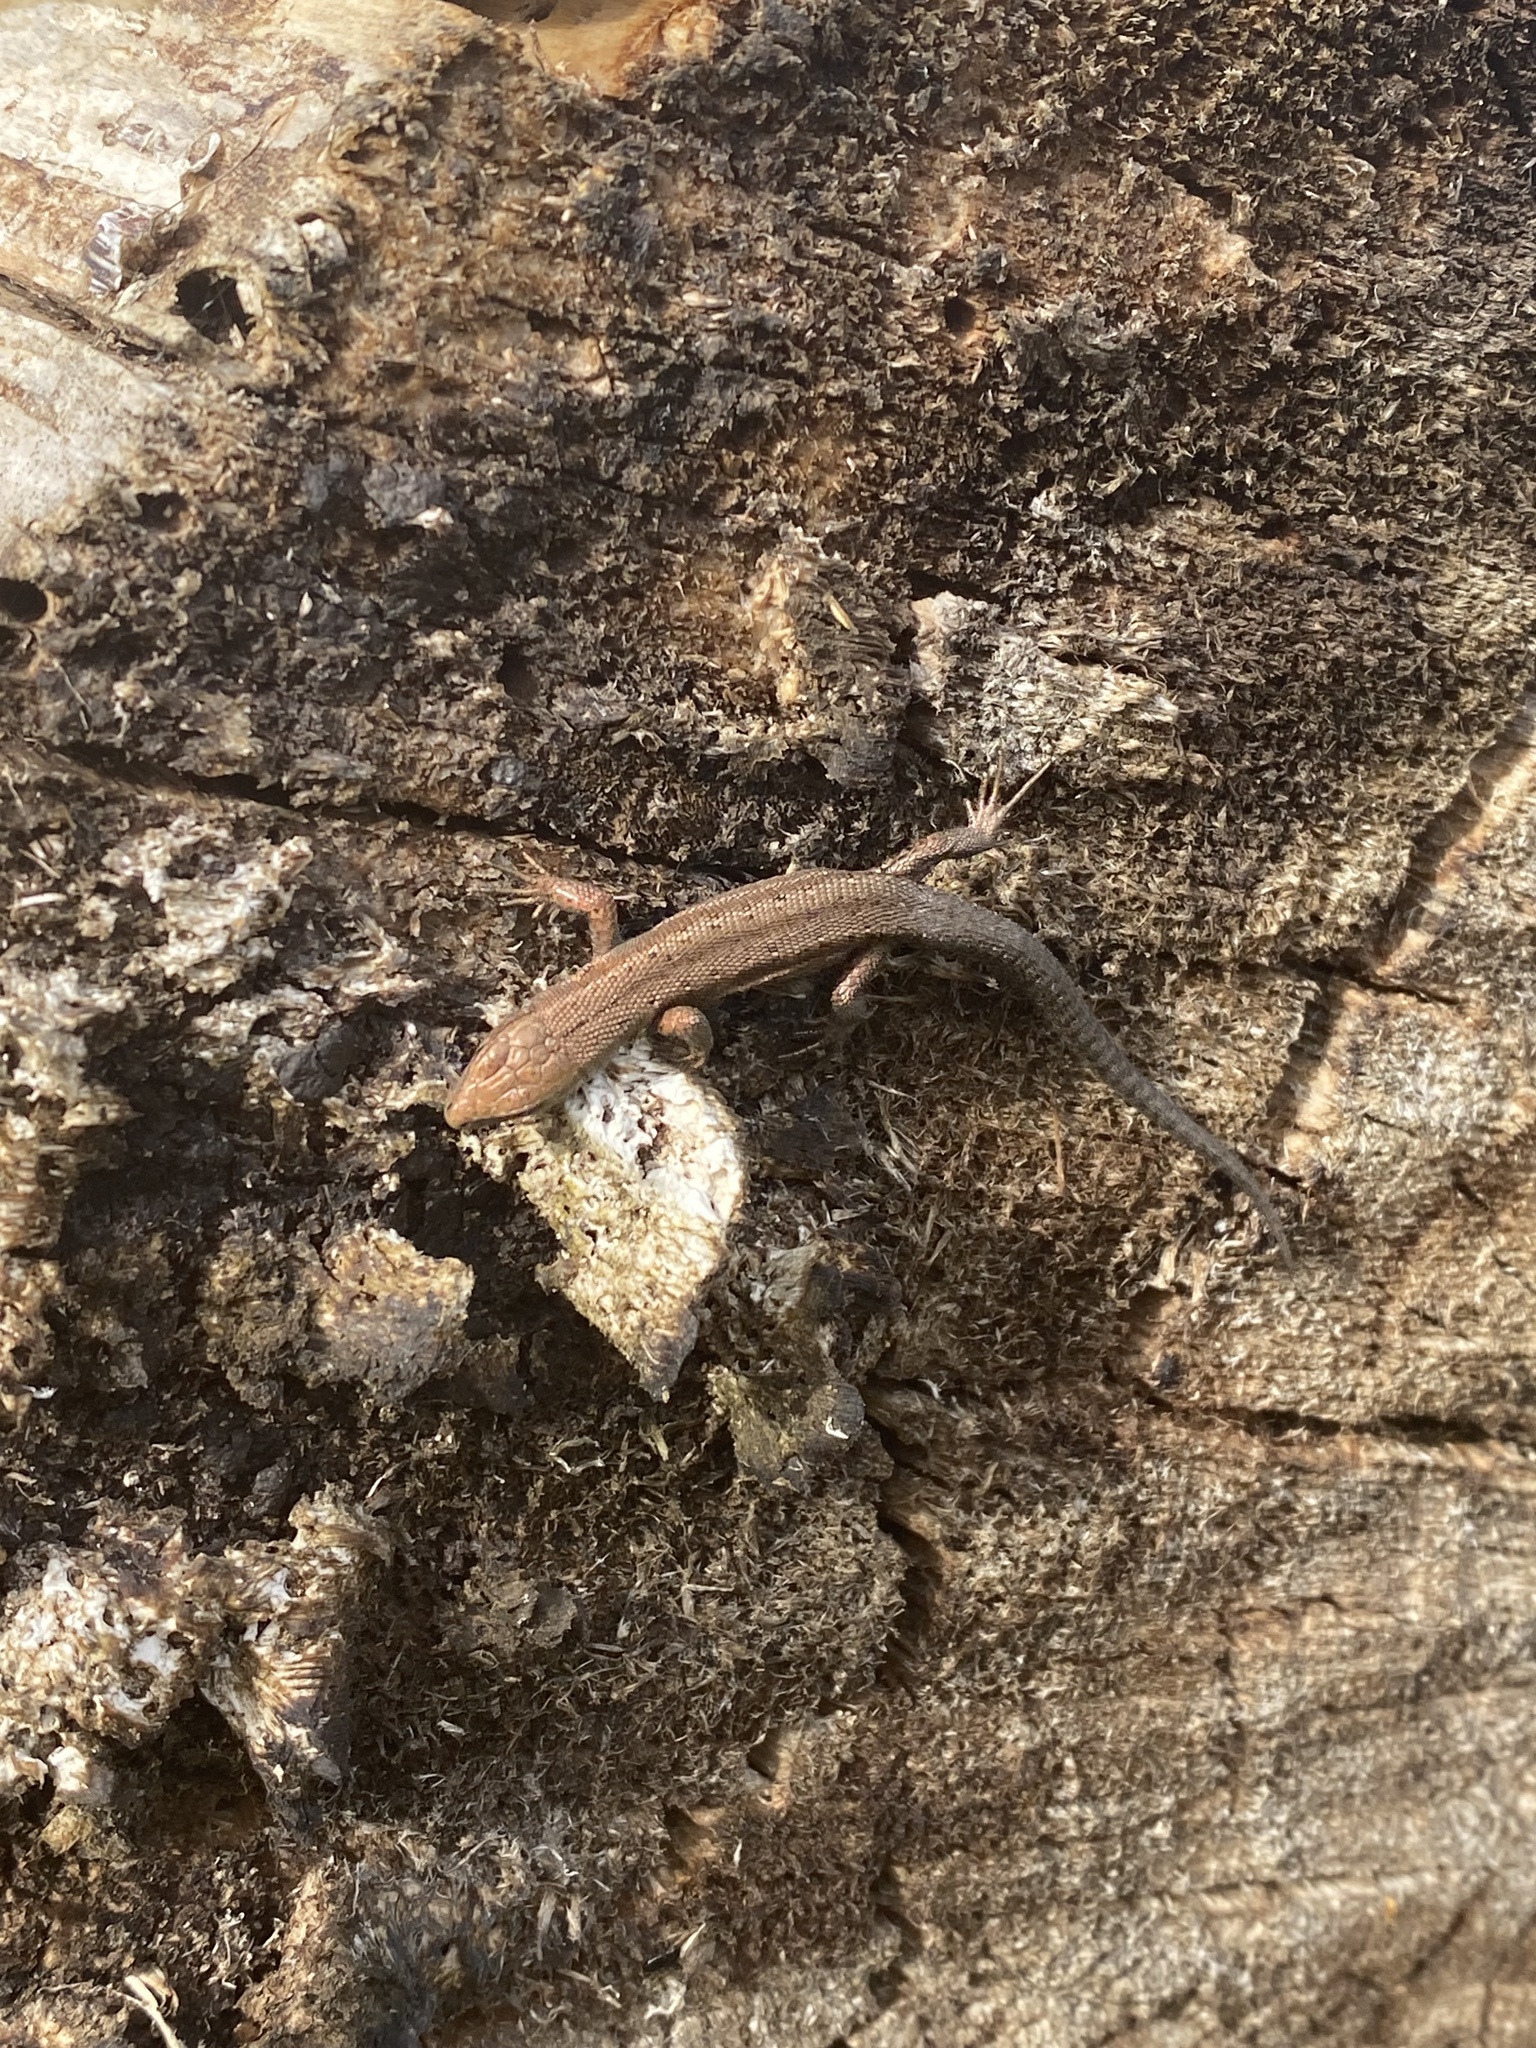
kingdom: Animalia
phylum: Chordata
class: Squamata
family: Lacertidae
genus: Zootoca
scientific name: Zootoca vivipara
